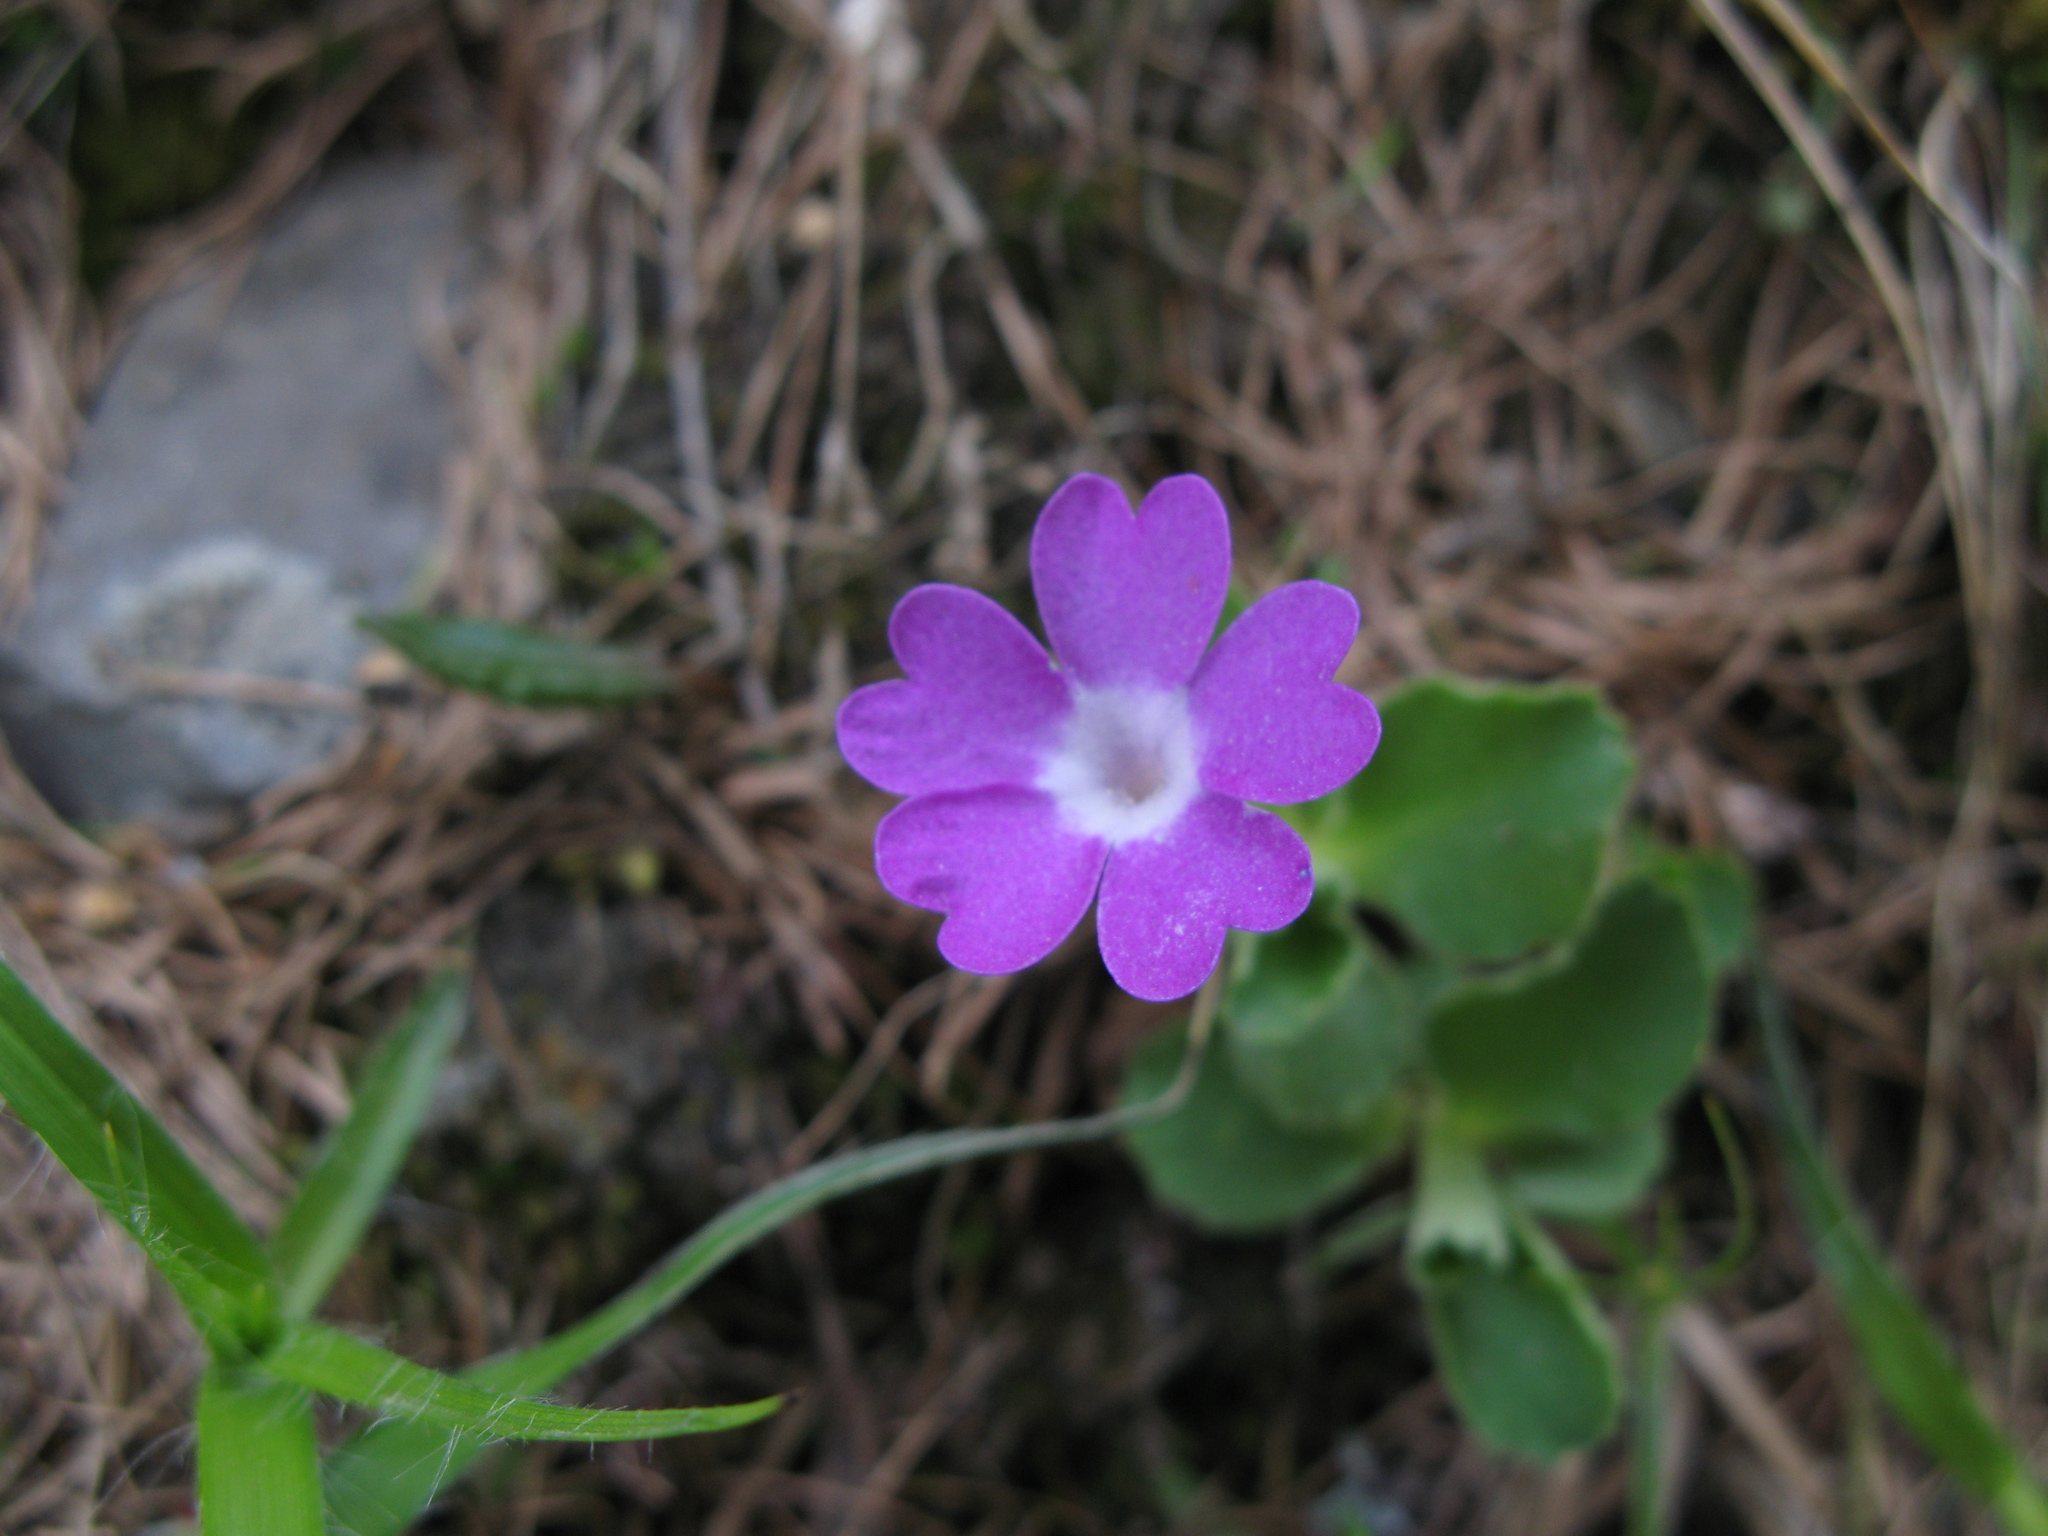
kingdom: Plantae
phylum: Tracheophyta
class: Magnoliopsida
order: Ericales
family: Primulaceae
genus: Primula
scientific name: Primula hirsuta
